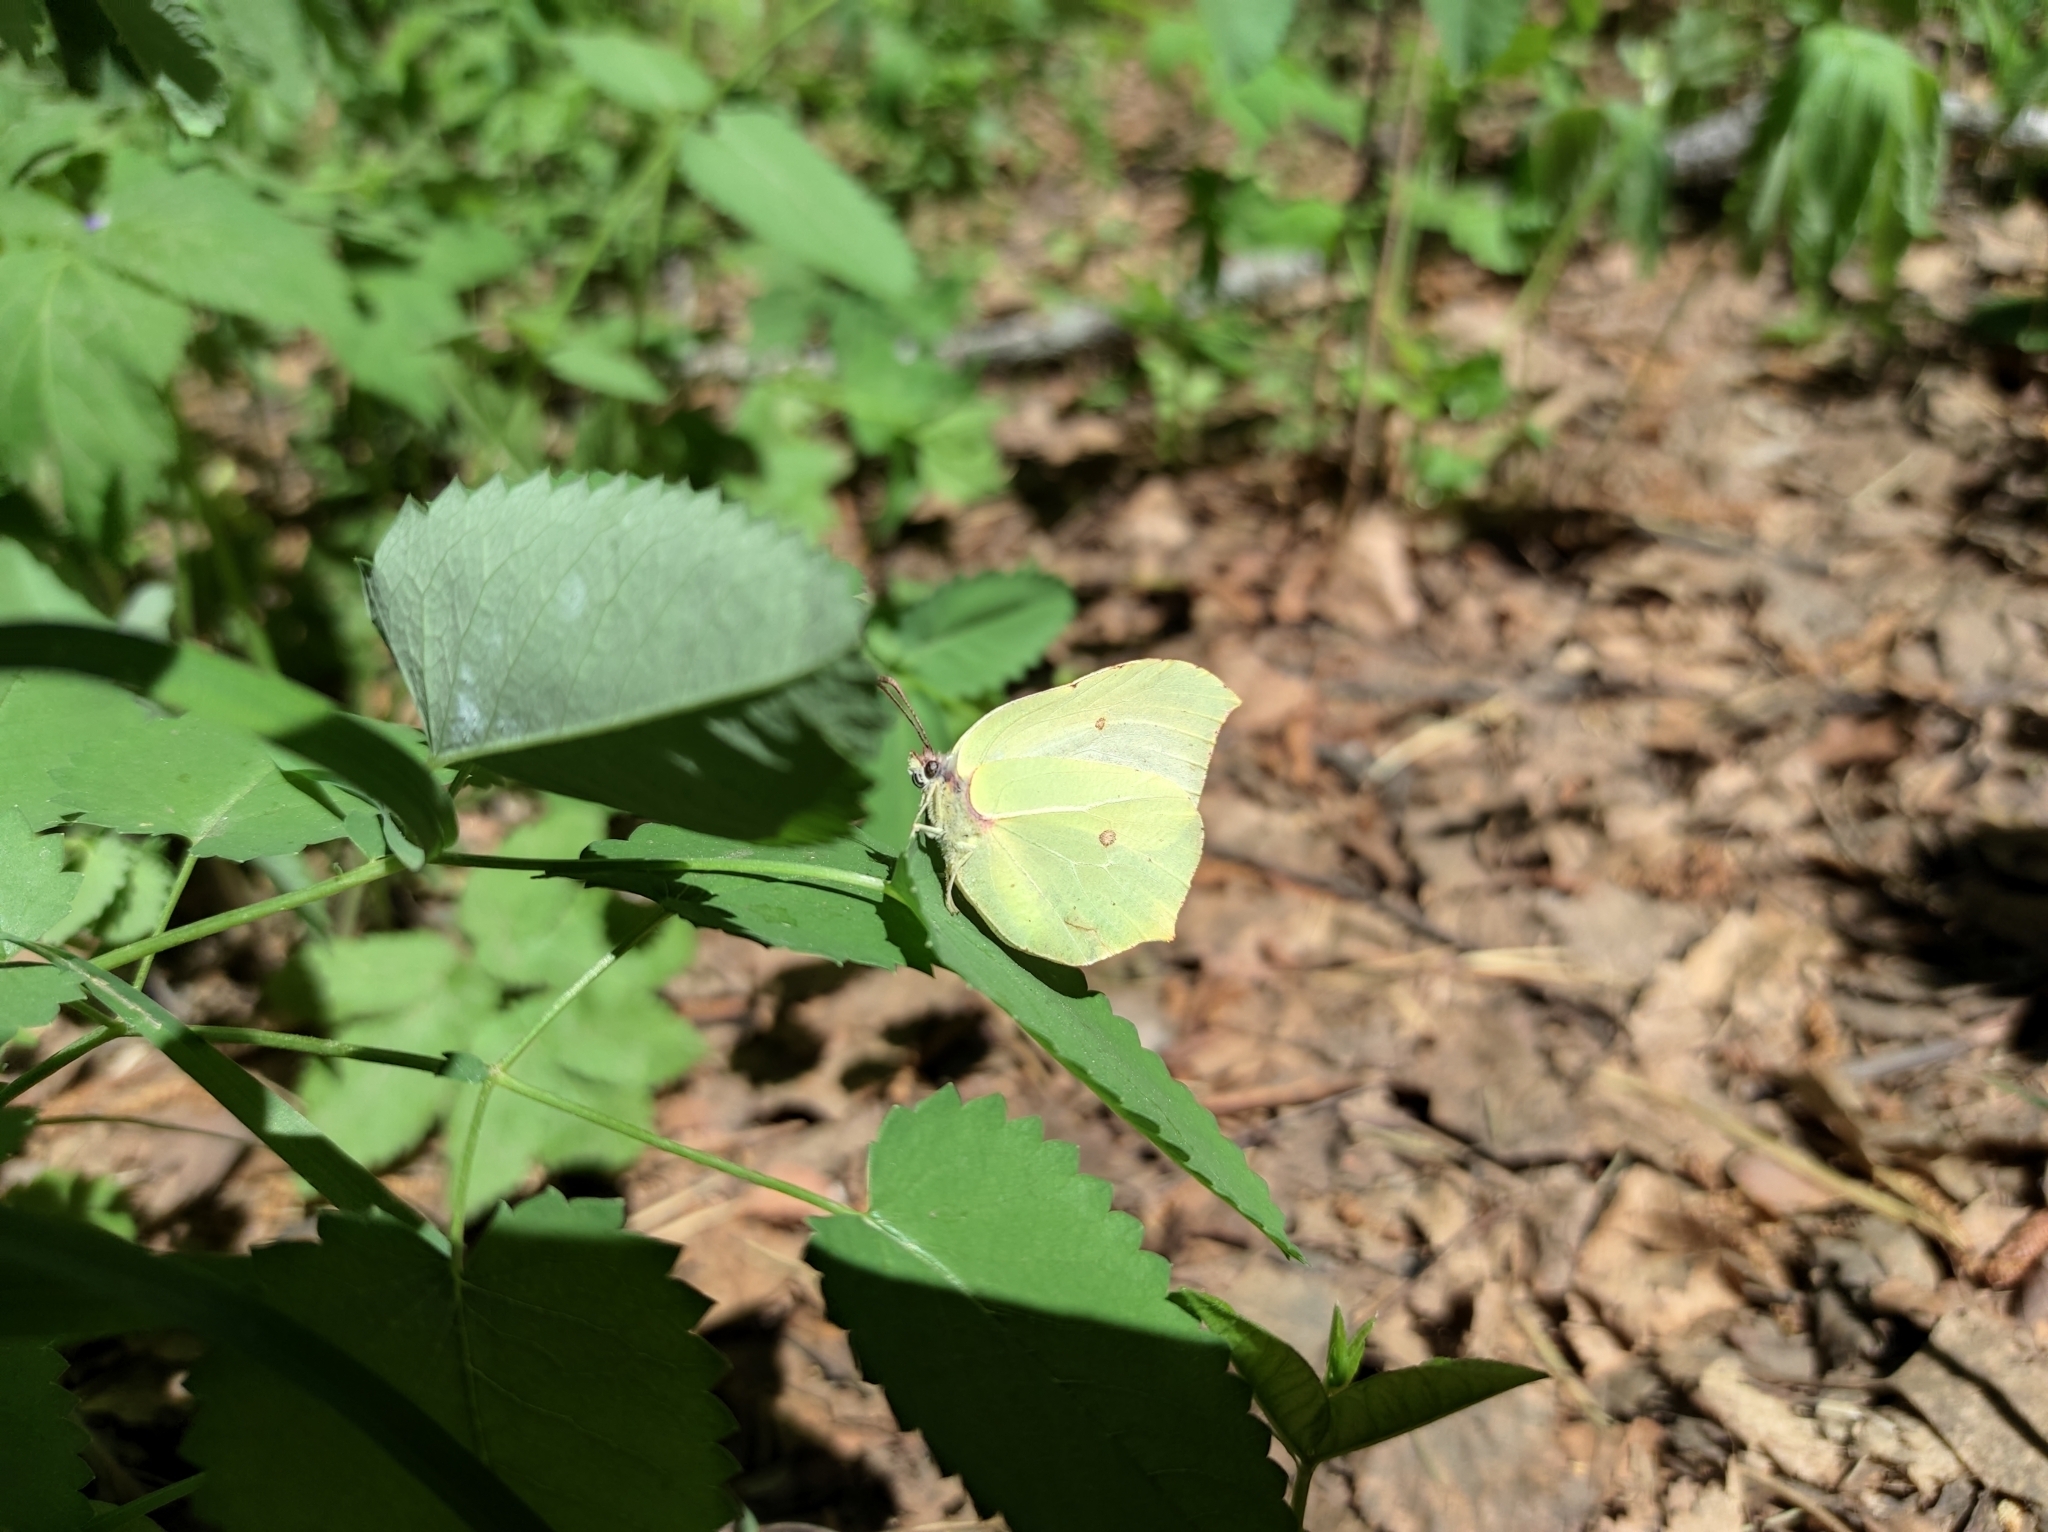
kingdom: Animalia
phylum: Arthropoda
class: Insecta
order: Lepidoptera
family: Pieridae
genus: Gonepteryx
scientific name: Gonepteryx rhamni
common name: Brimstone
